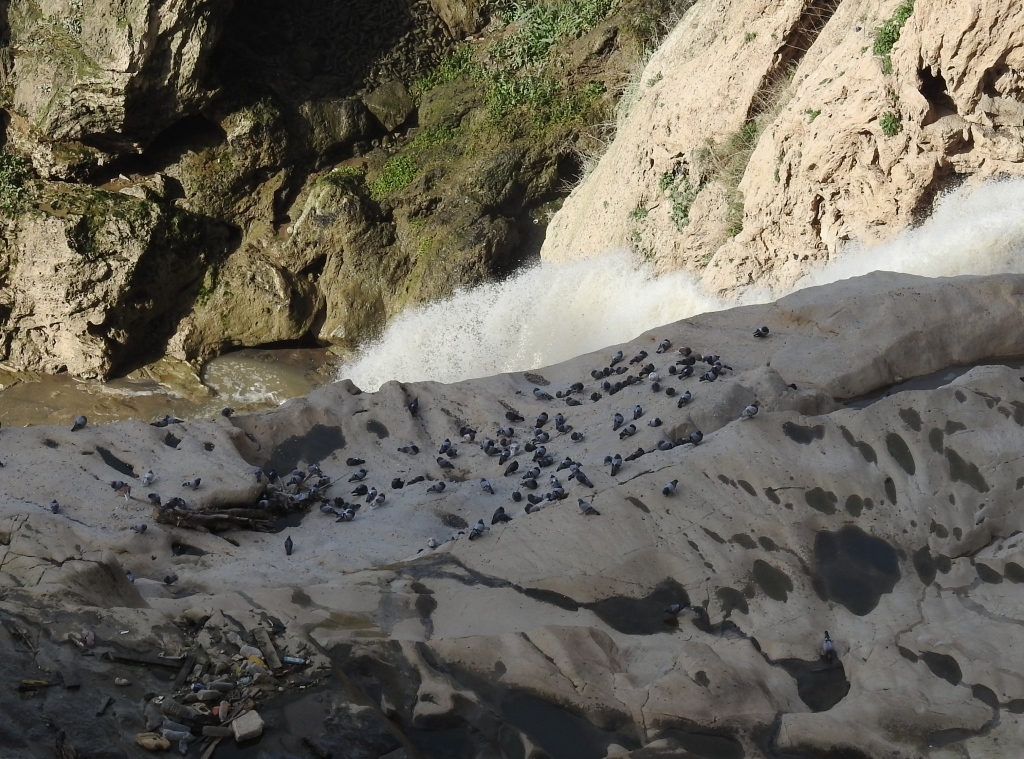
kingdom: Animalia
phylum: Chordata
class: Aves
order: Columbiformes
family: Columbidae
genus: Columba
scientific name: Columba livia
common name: Rock pigeon
